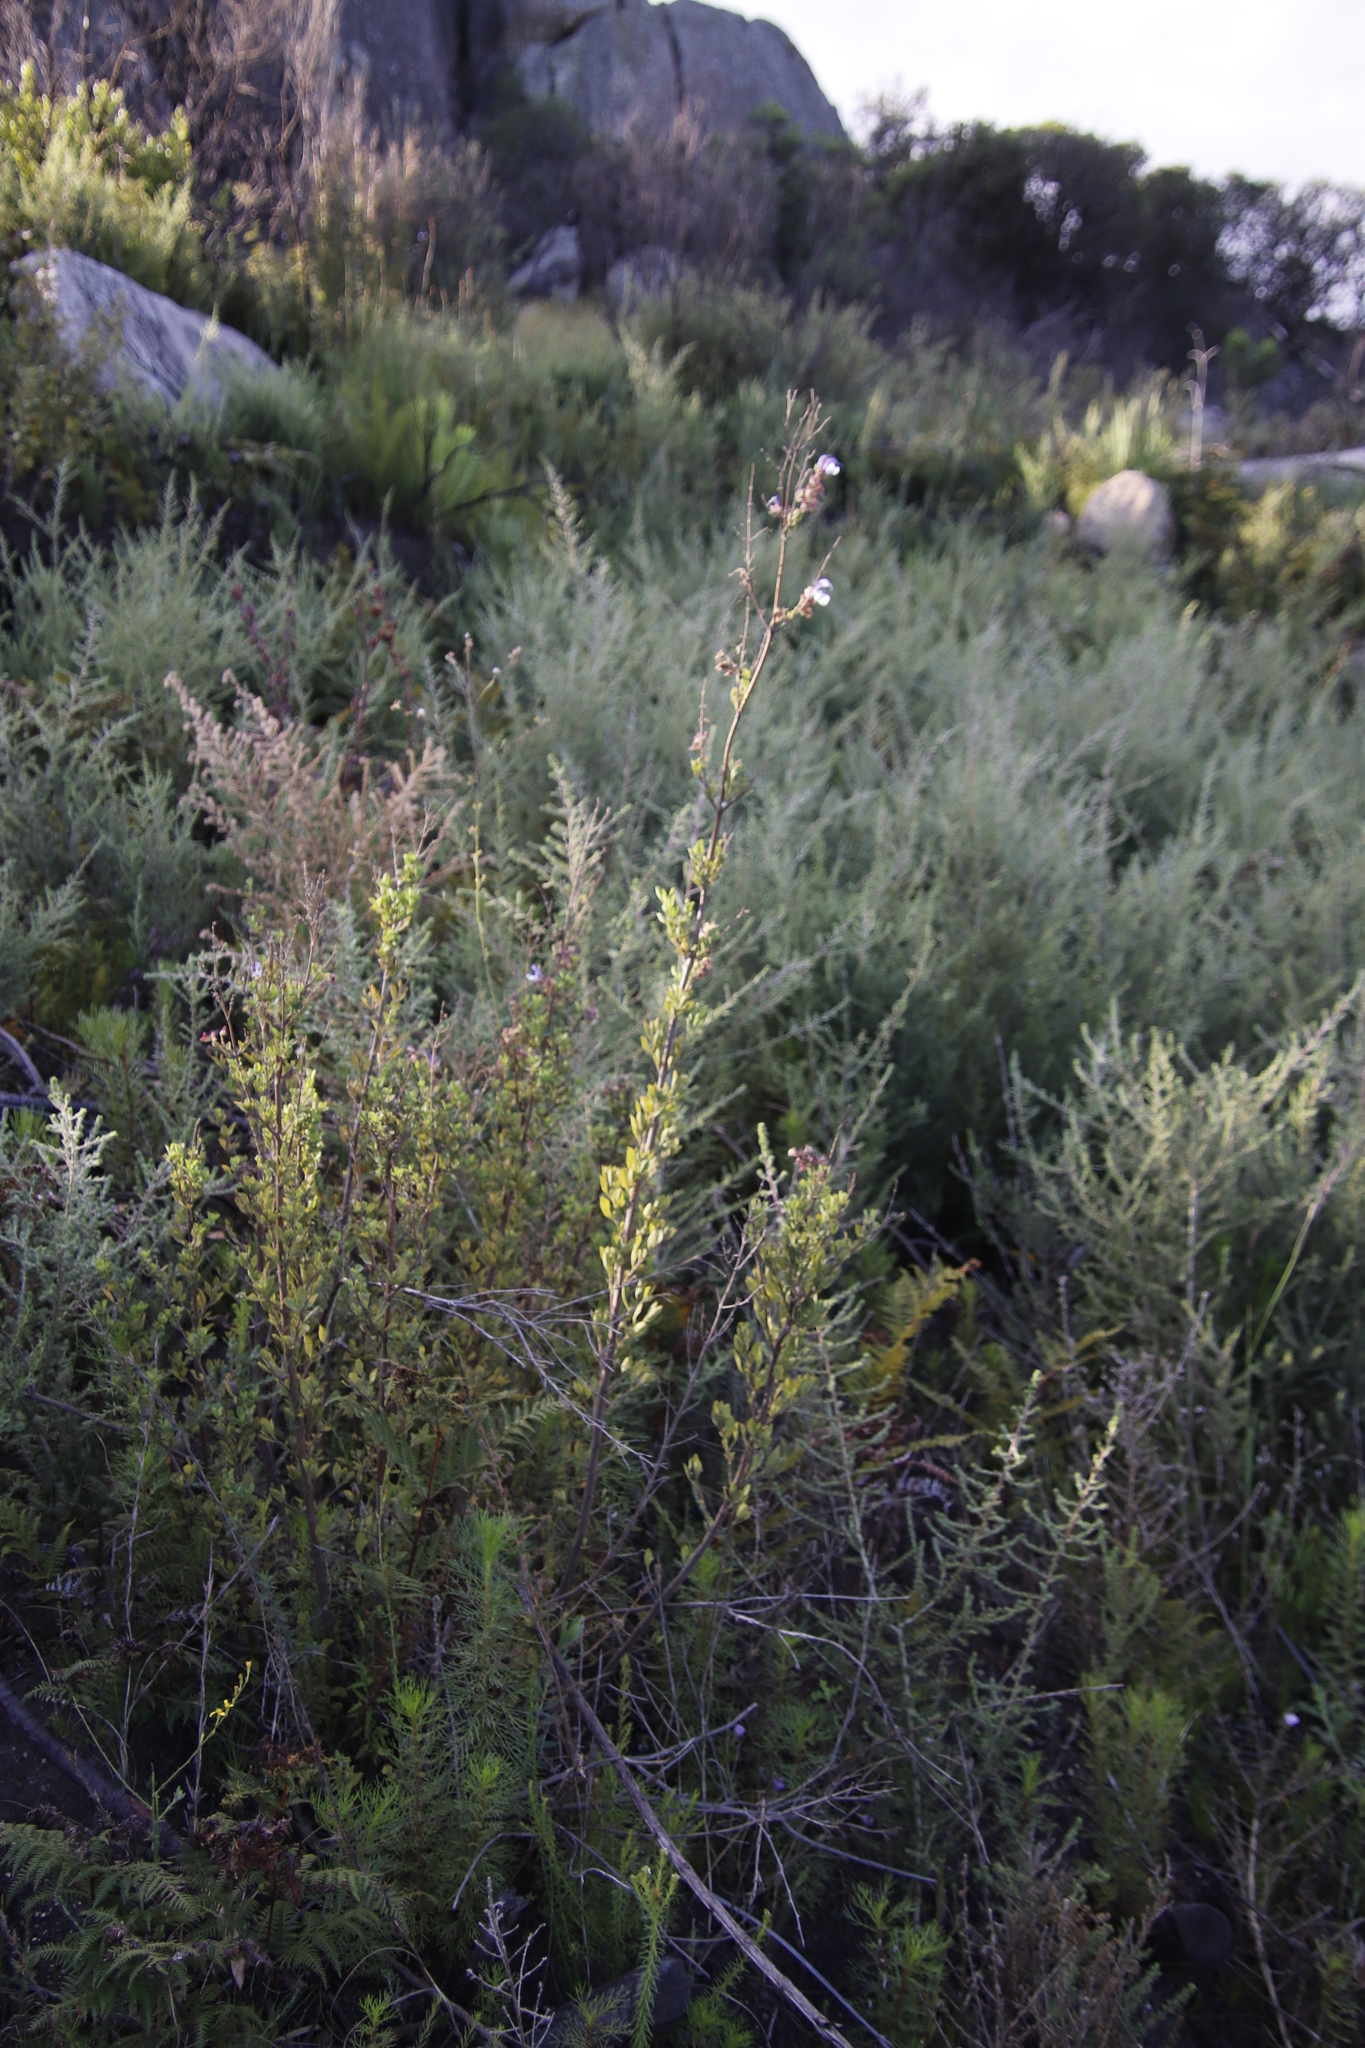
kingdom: Plantae
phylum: Tracheophyta
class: Magnoliopsida
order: Lamiales
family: Lamiaceae
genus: Salvia
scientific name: Salvia chamelaeagnea
